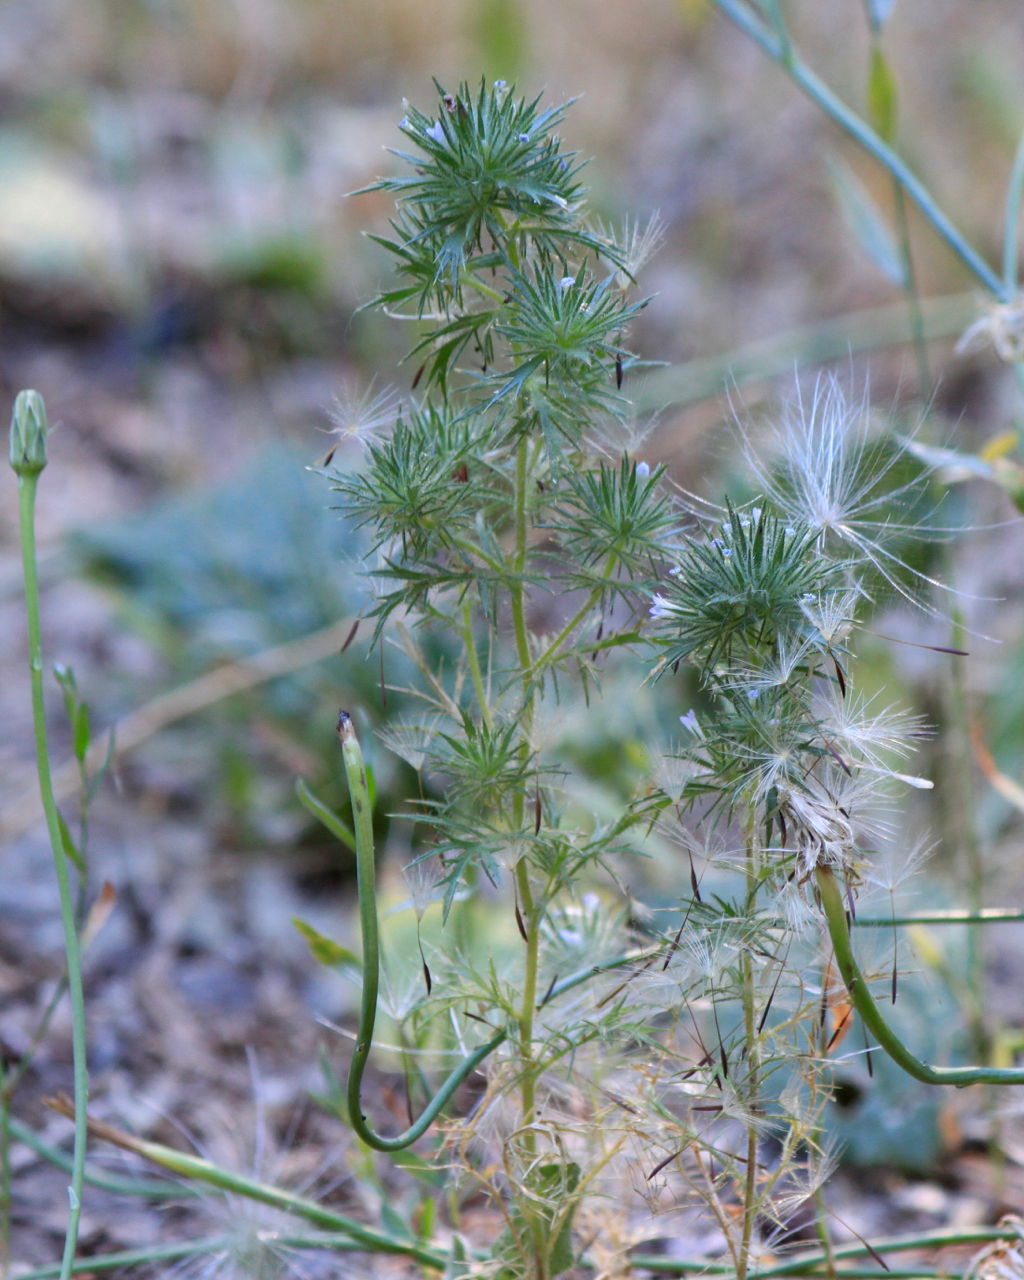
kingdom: Plantae
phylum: Tracheophyta
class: Magnoliopsida
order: Ericales
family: Polemoniaceae
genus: Navarretia
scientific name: Navarretia squarrosa
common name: Skunkweed
